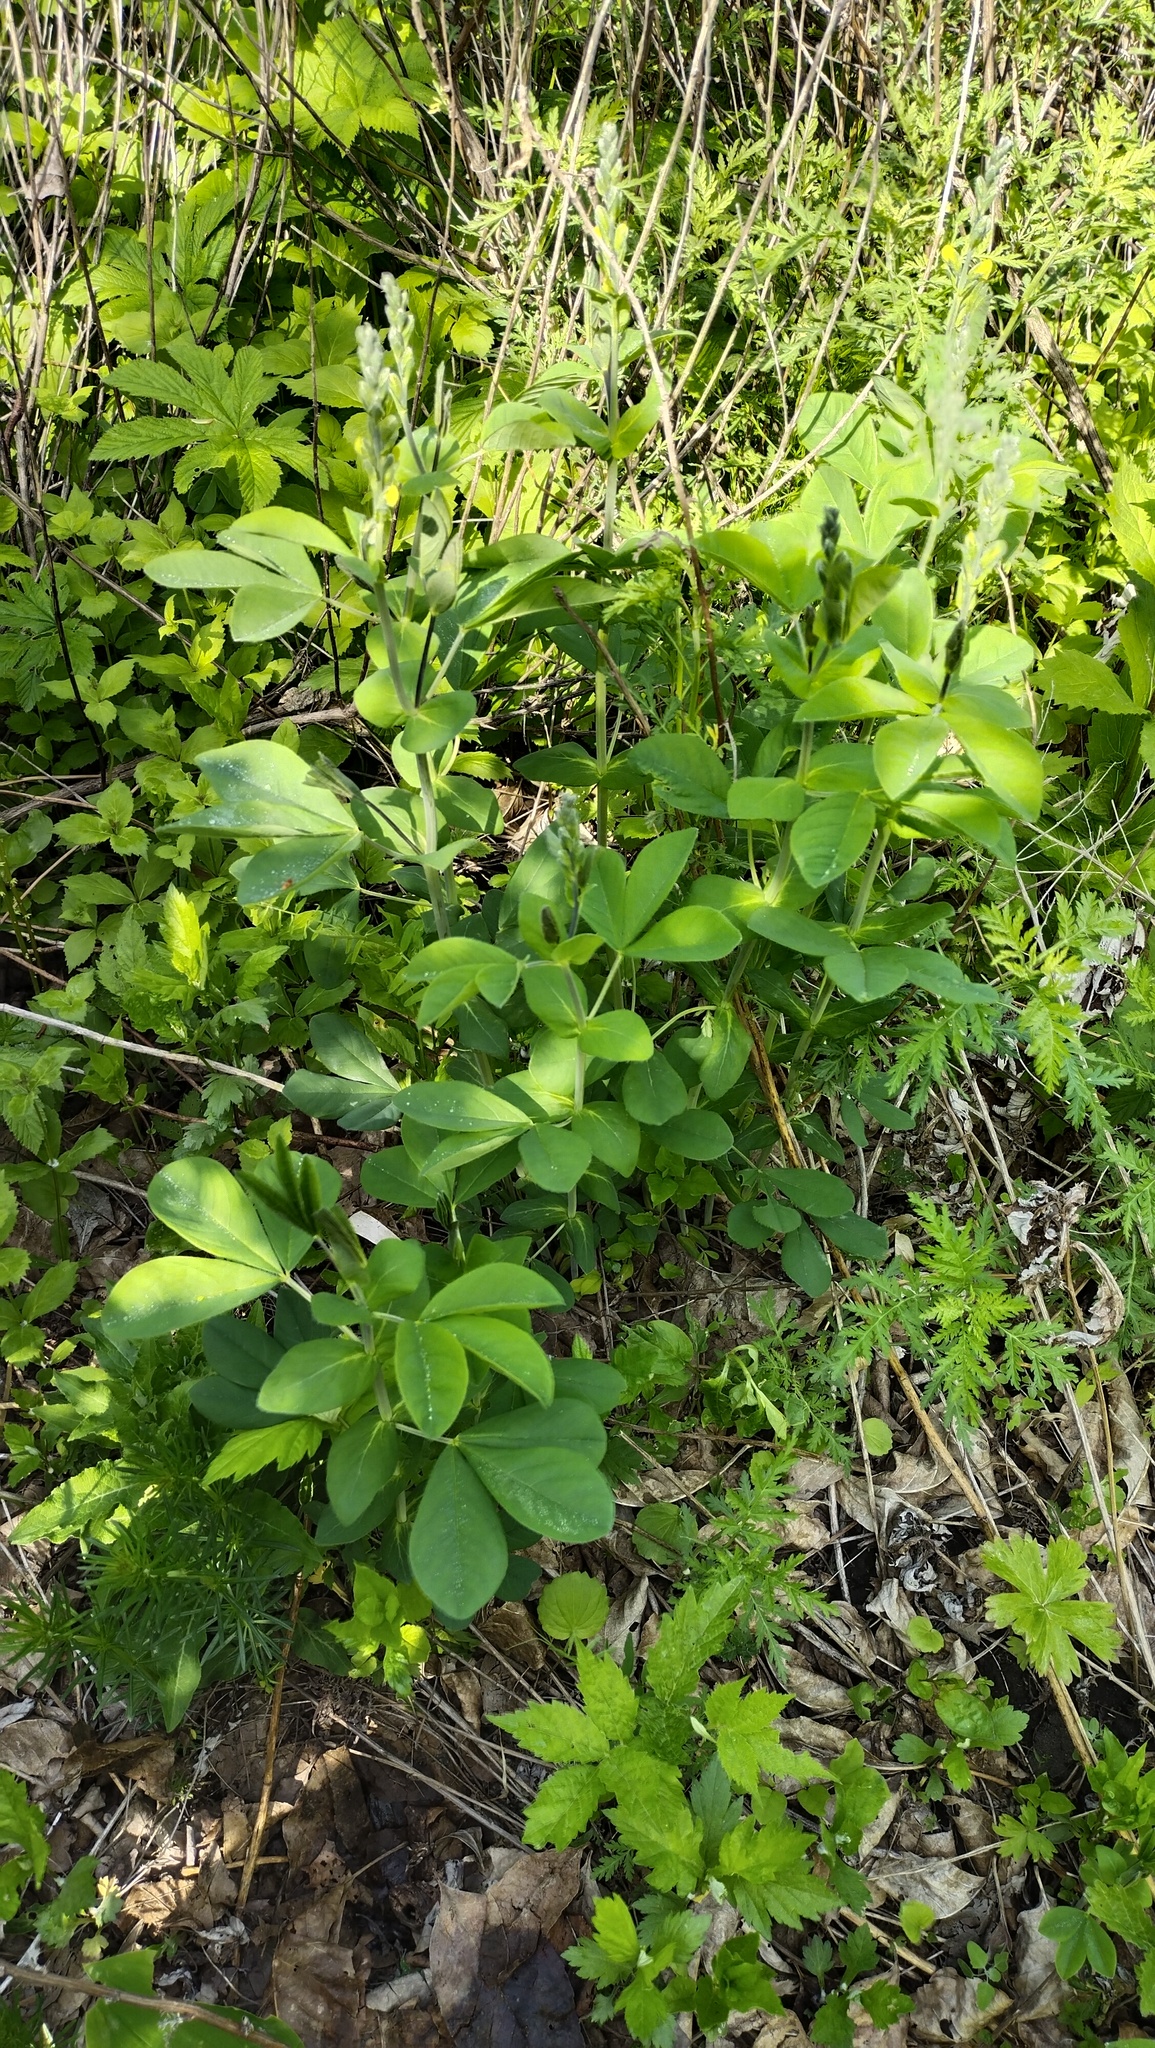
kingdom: Plantae
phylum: Tracheophyta
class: Magnoliopsida
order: Fabales
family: Fabaceae
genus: Thermopsis
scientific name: Thermopsis lanceolata
